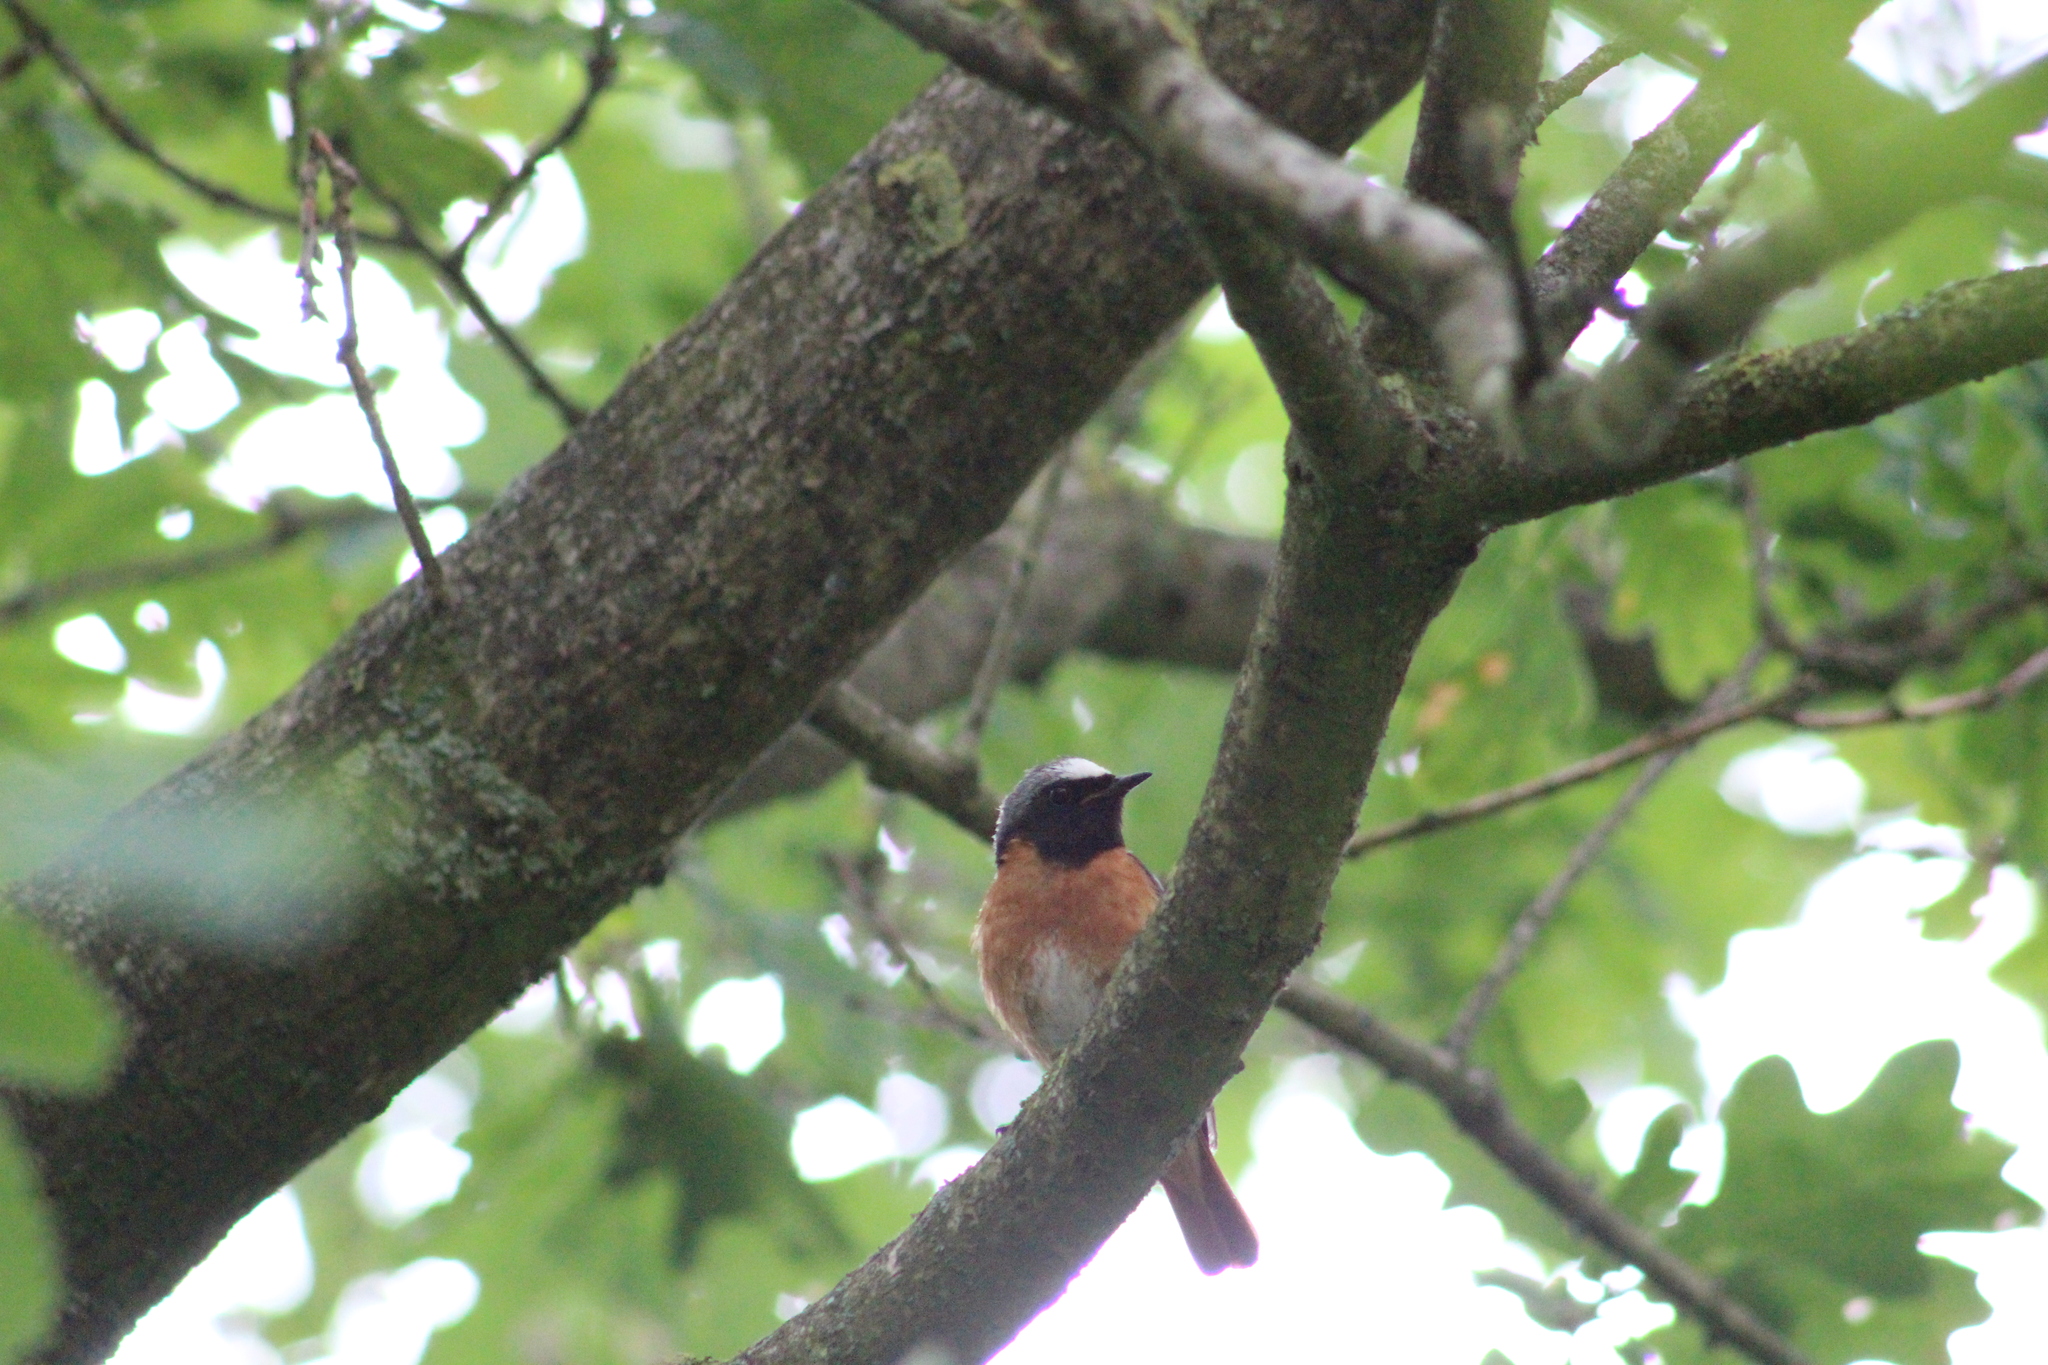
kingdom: Animalia
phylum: Chordata
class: Aves
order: Passeriformes
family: Muscicapidae
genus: Phoenicurus
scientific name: Phoenicurus phoenicurus
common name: Common redstart
